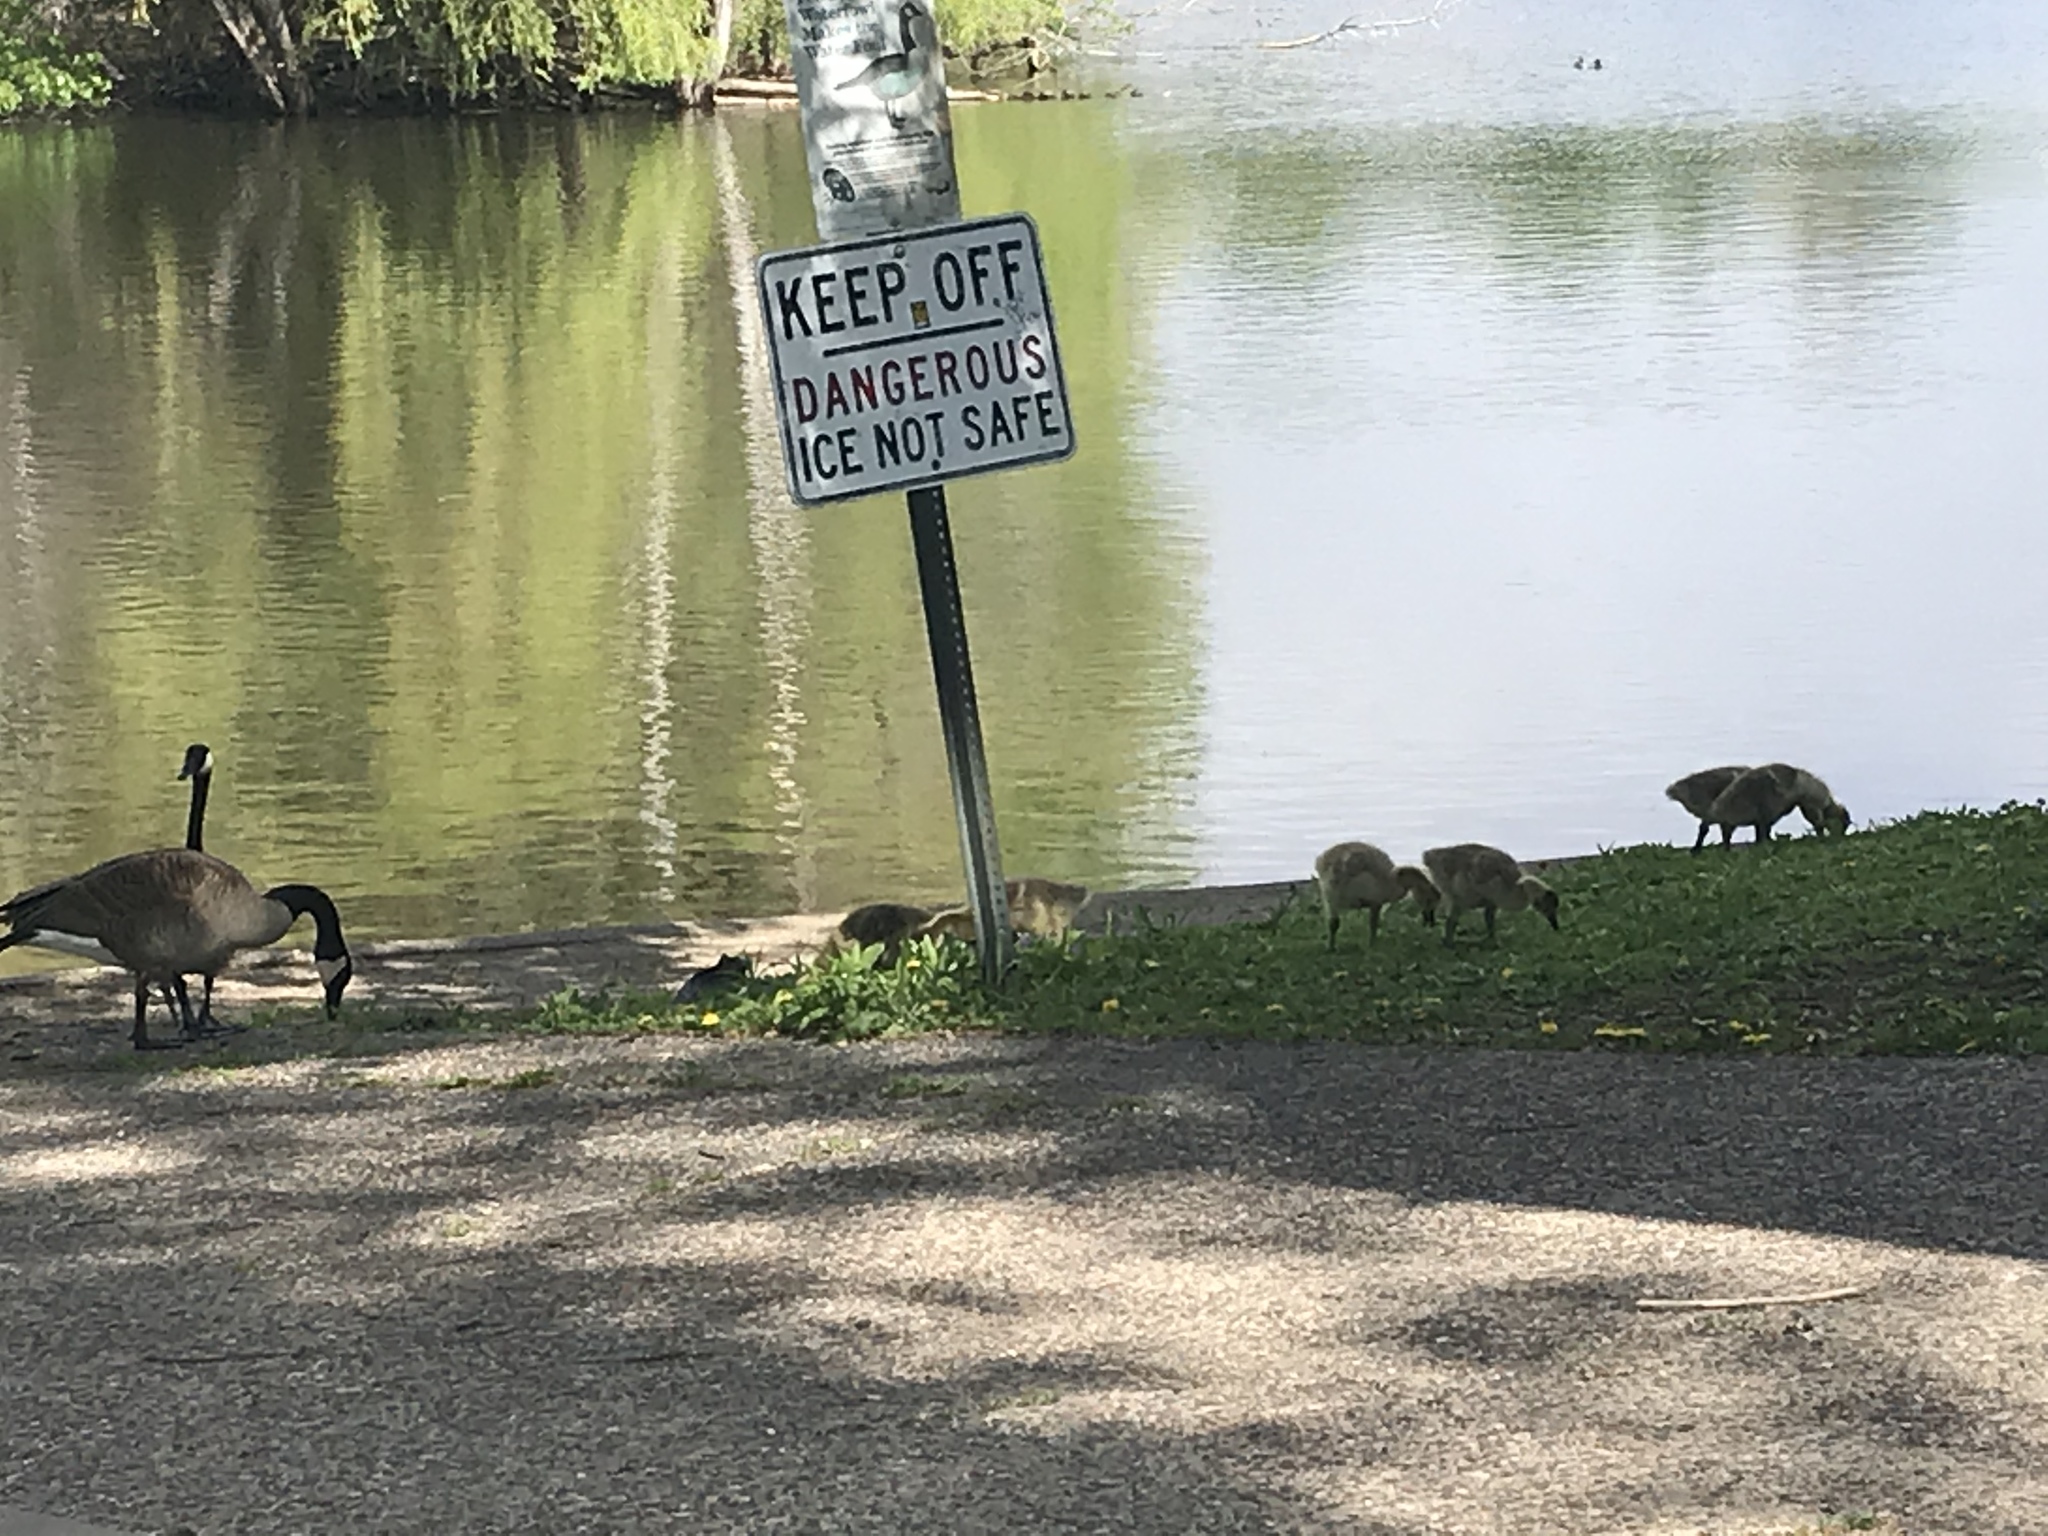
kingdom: Animalia
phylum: Chordata
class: Aves
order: Anseriformes
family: Anatidae
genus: Branta
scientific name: Branta canadensis
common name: Canada goose
